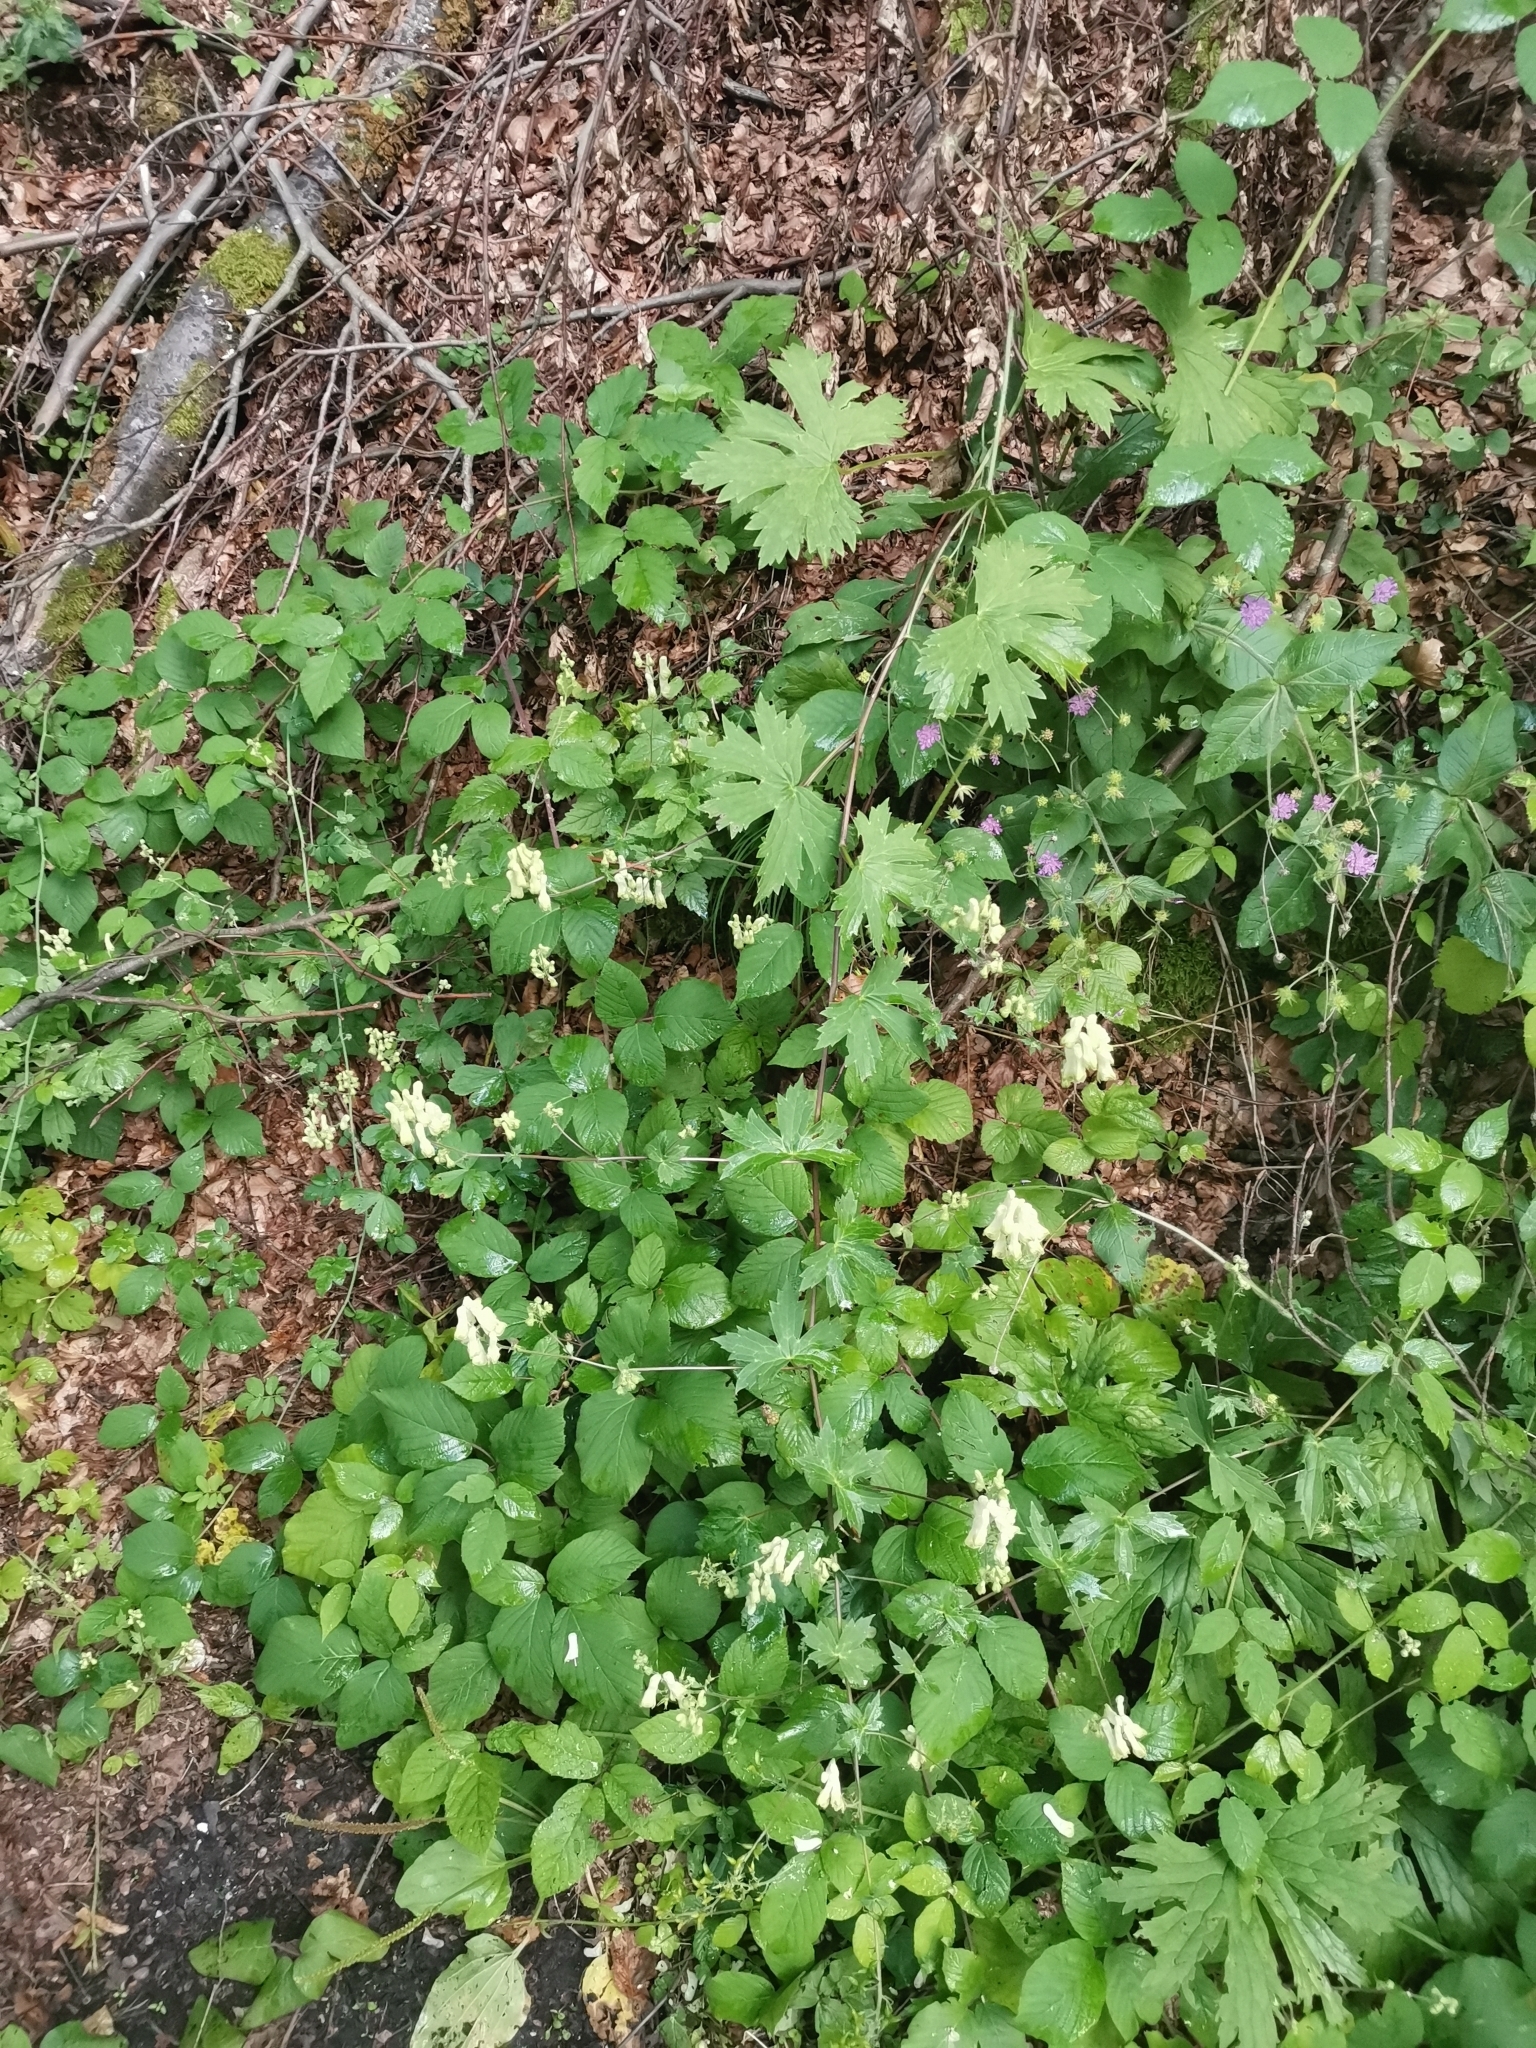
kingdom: Plantae
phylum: Tracheophyta
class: Magnoliopsida
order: Ranunculales
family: Ranunculaceae
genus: Aconitum
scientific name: Aconitum lycoctonum
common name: Wolf's-bane
